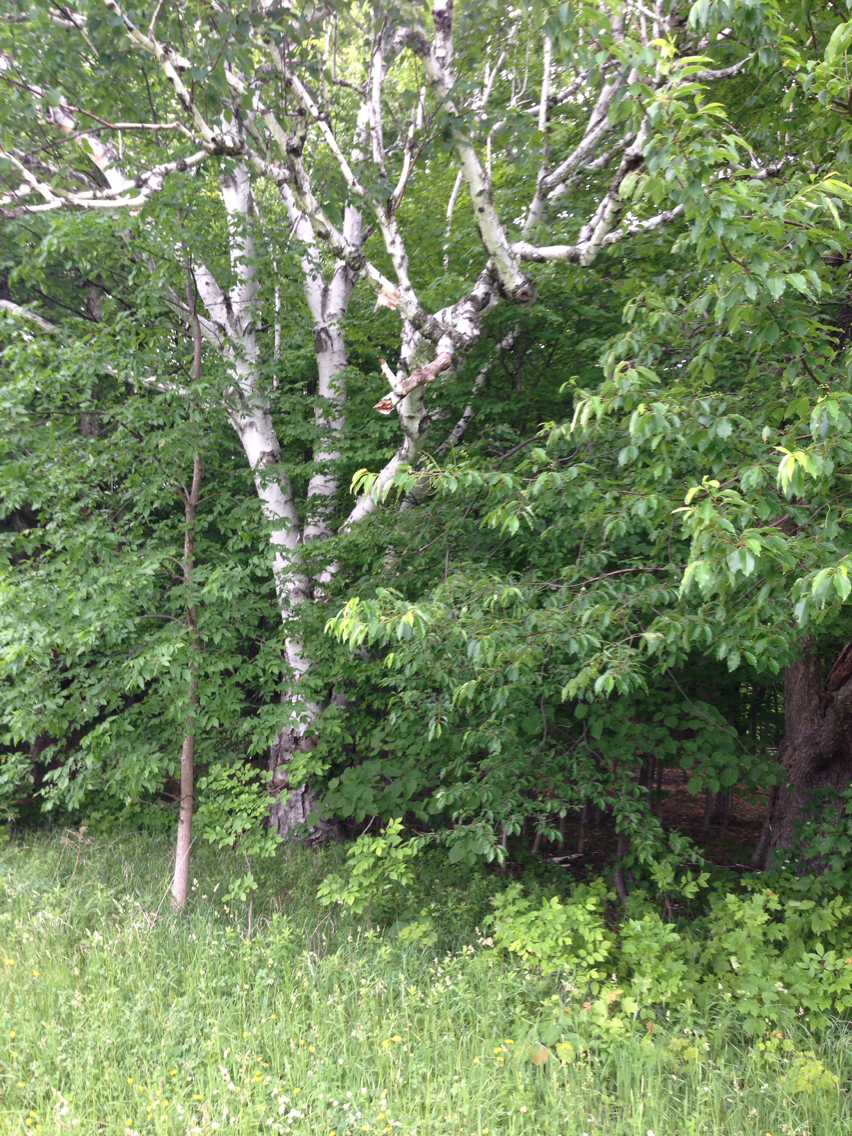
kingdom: Plantae
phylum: Tracheophyta
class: Magnoliopsida
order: Fagales
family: Betulaceae
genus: Betula
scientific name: Betula papyrifera
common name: Paper birch
